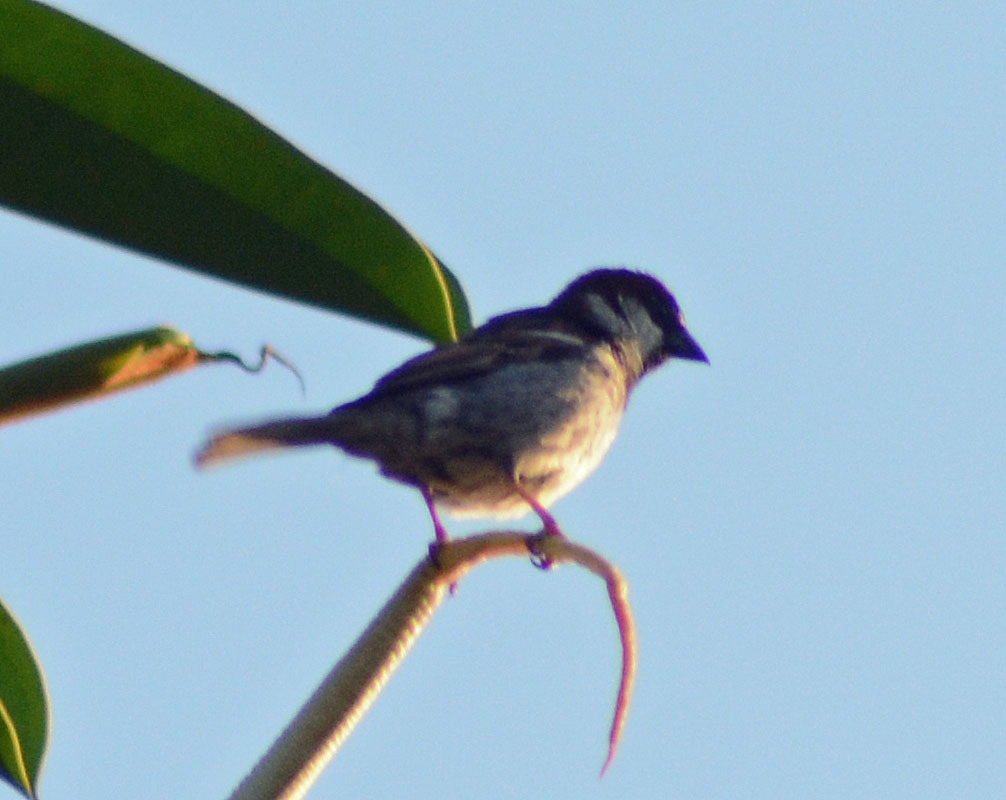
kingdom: Animalia
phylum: Chordata
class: Aves
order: Passeriformes
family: Passeridae
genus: Passer
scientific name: Passer domesticus
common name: House sparrow
